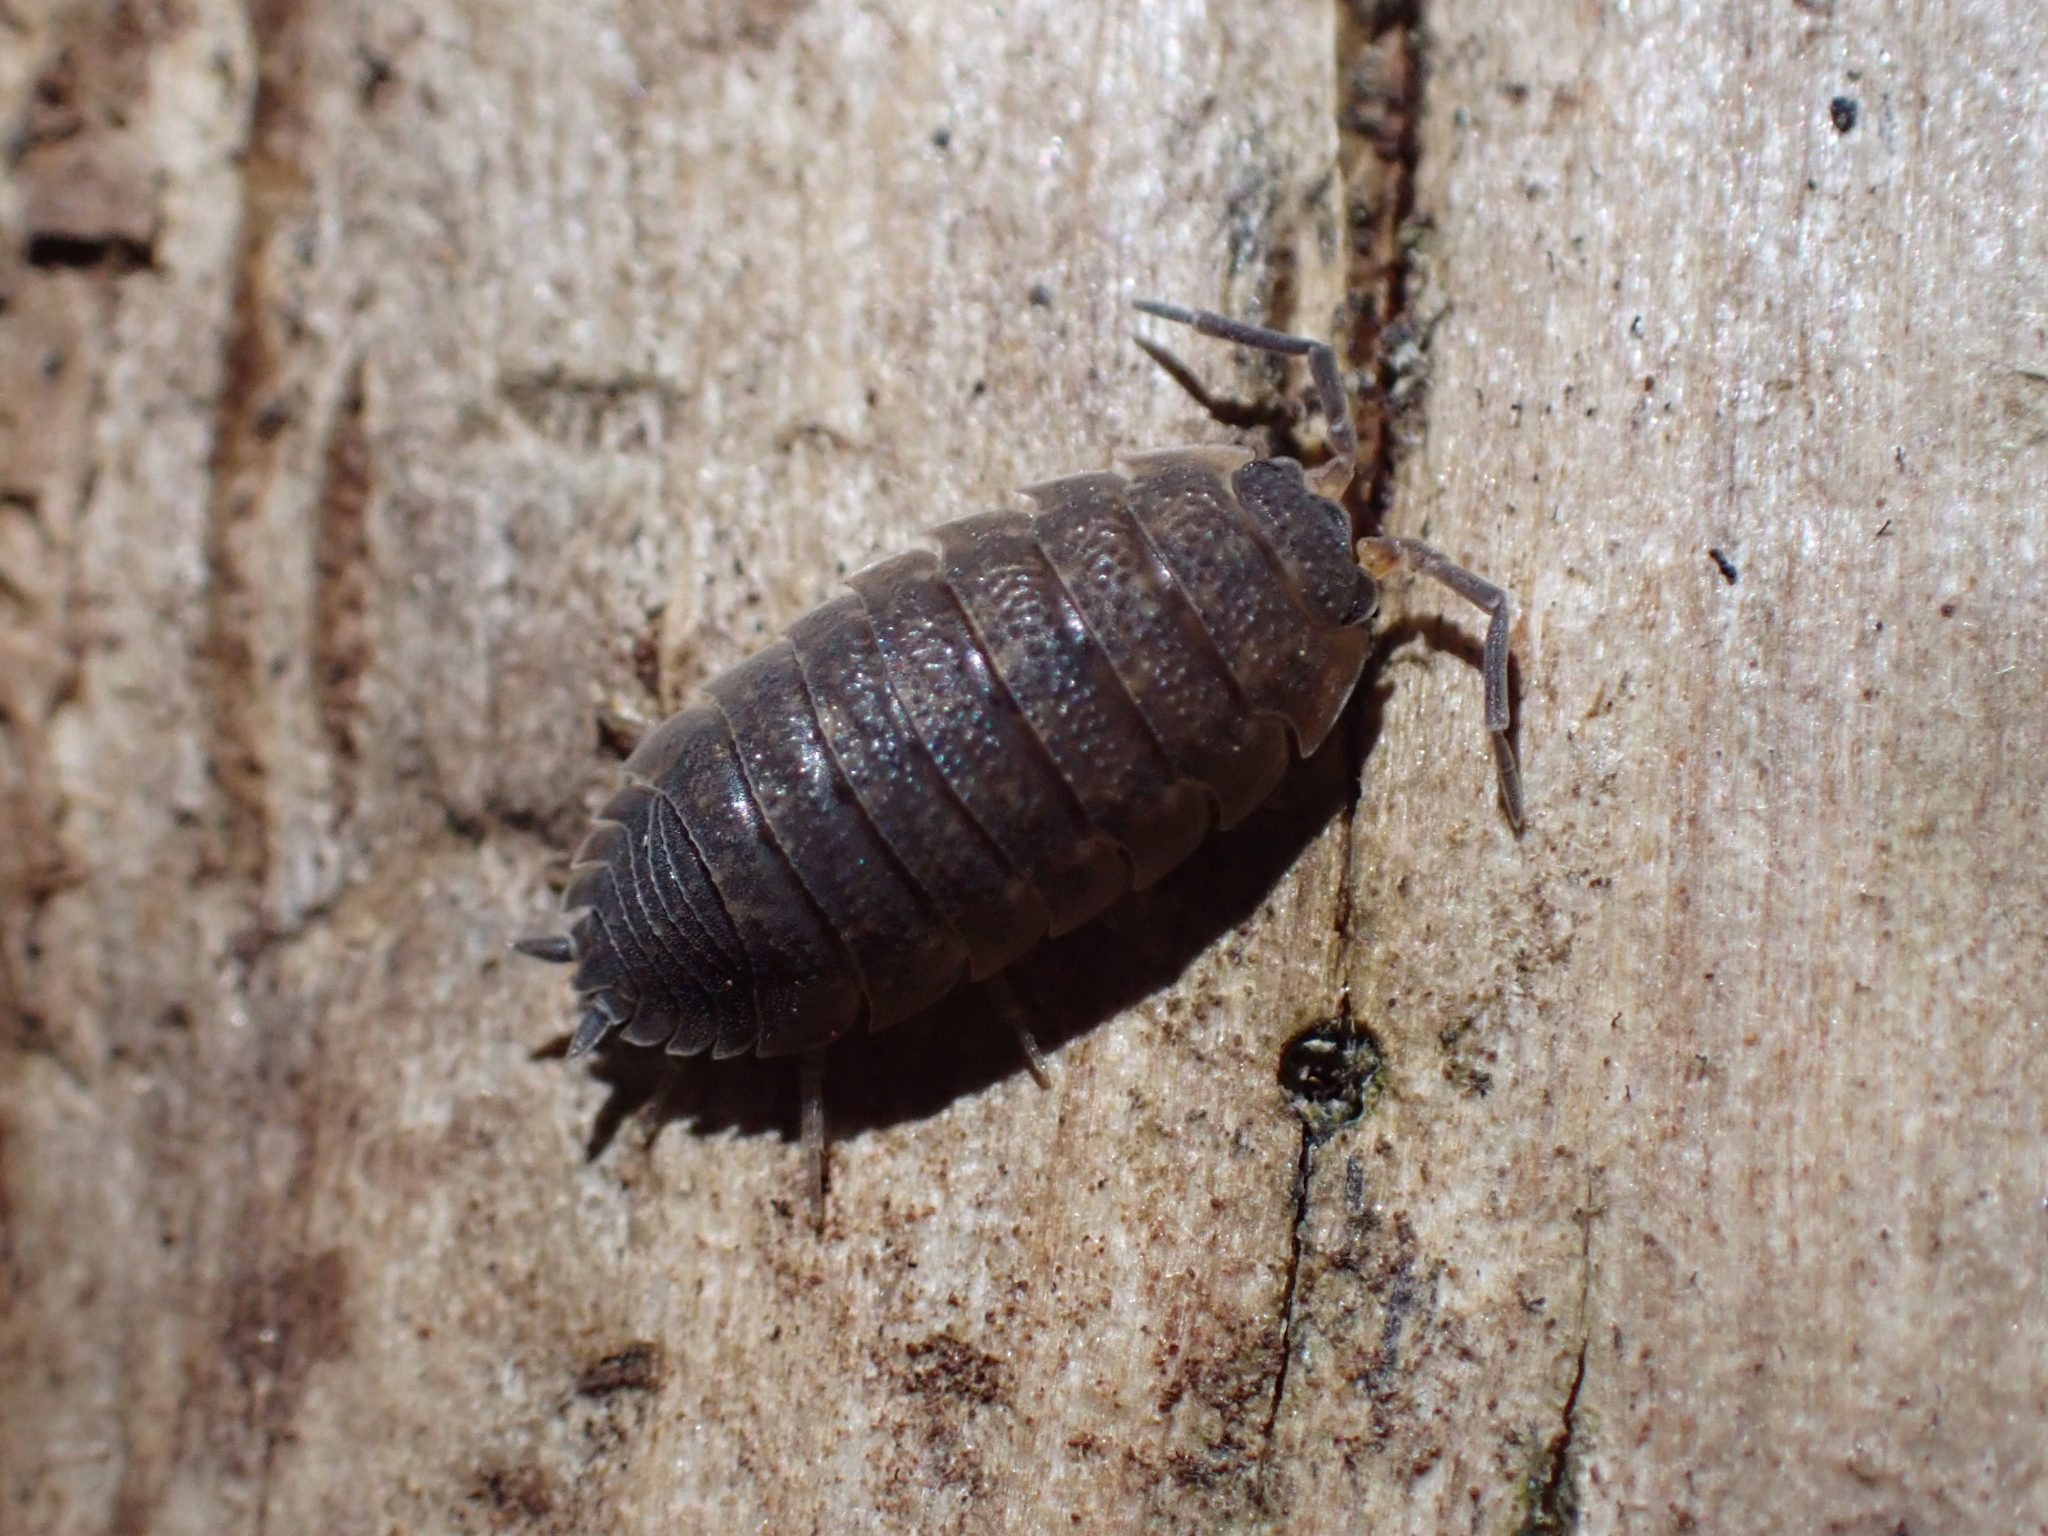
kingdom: Animalia
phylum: Arthropoda
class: Malacostraca
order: Isopoda
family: Porcellionidae
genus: Porcellio
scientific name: Porcellio scaber
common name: Common rough woodlouse
